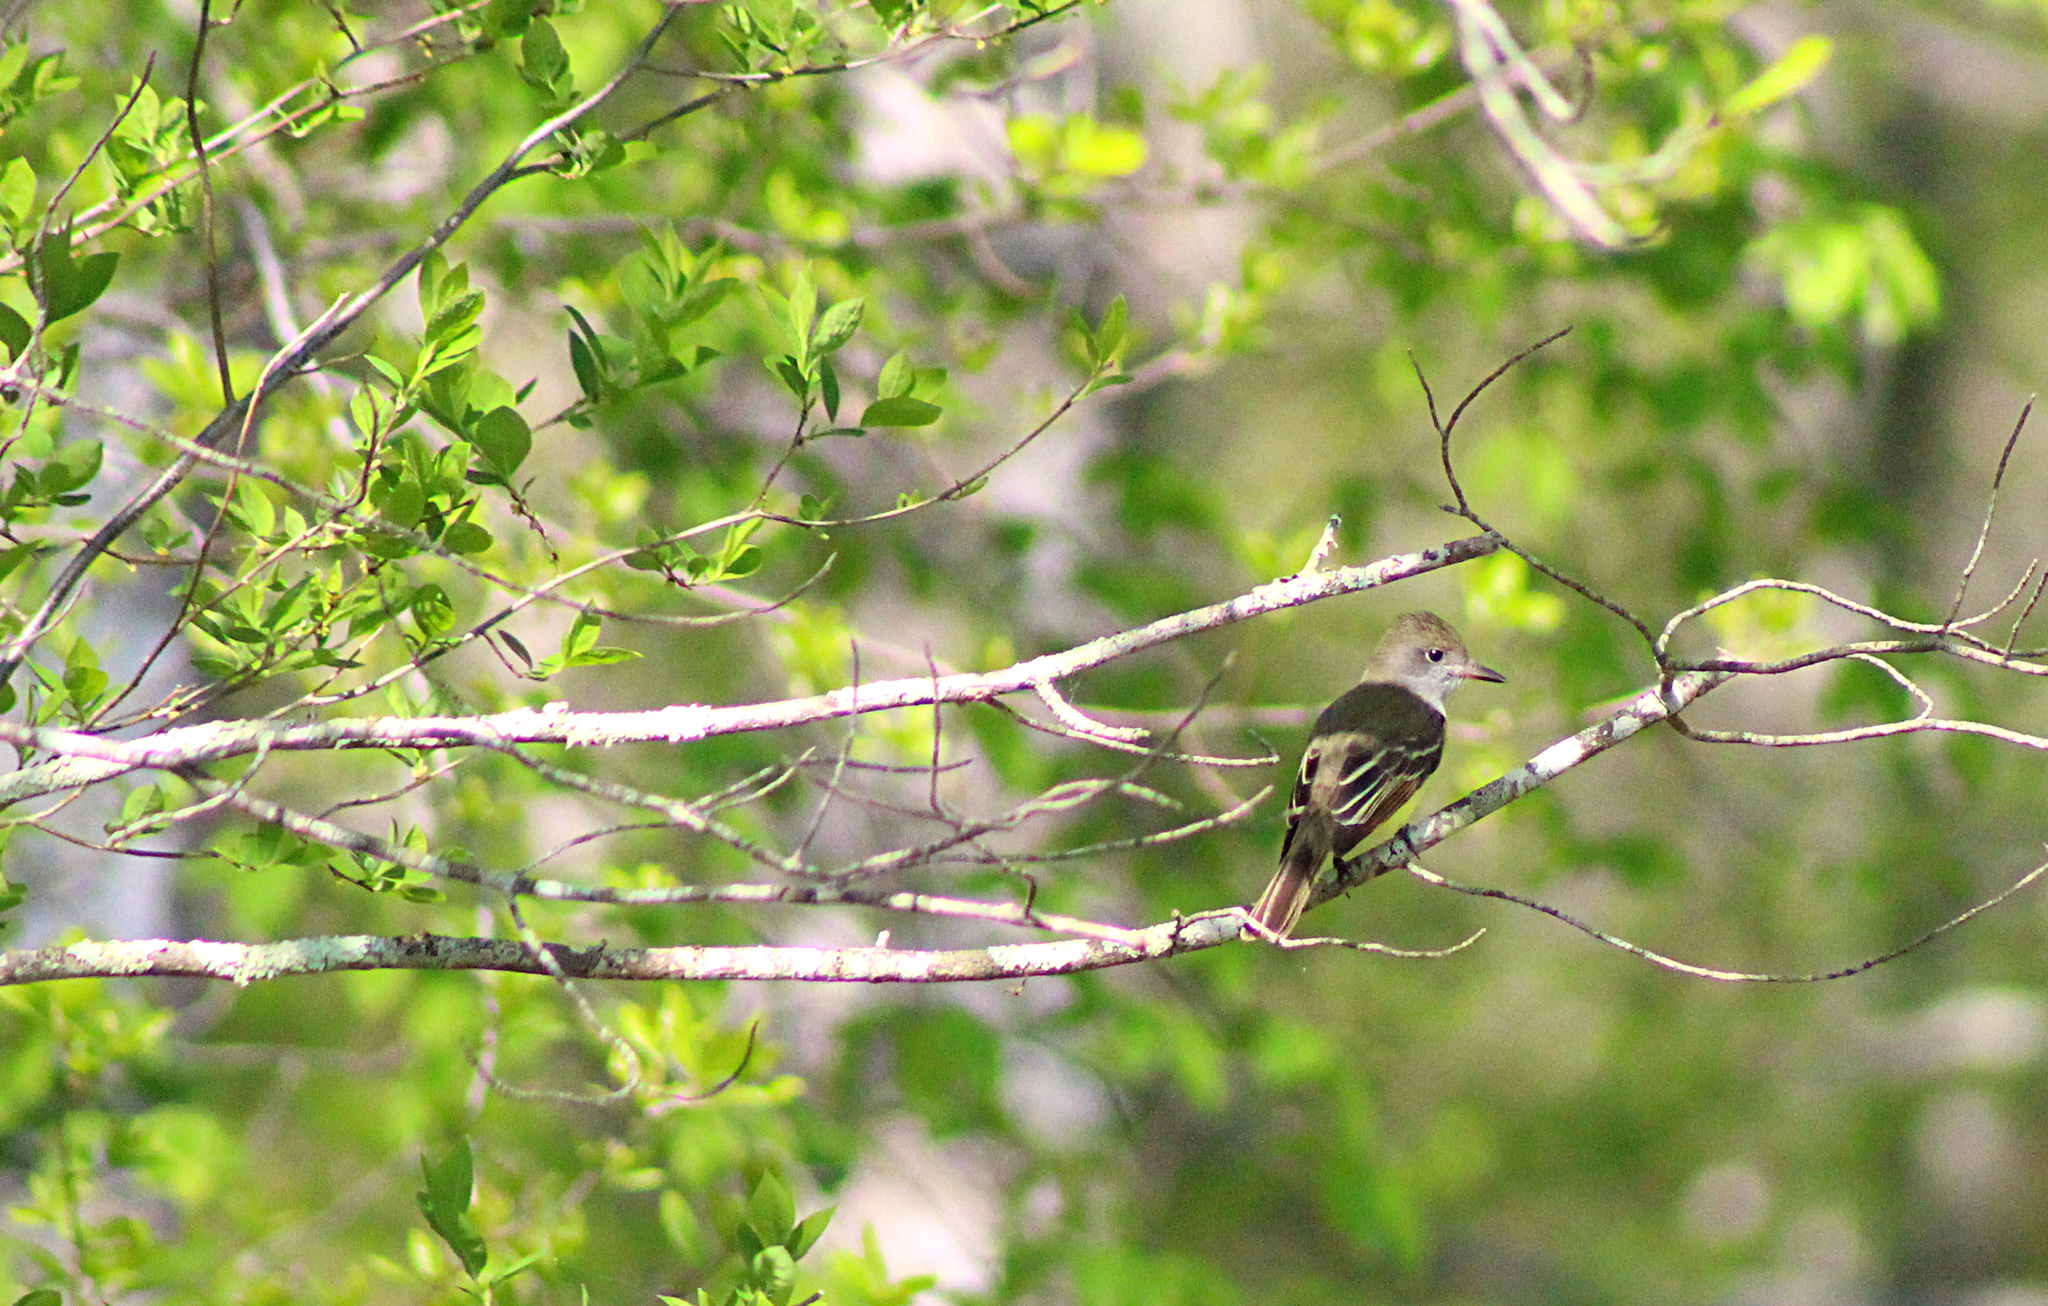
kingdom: Animalia
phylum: Chordata
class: Aves
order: Passeriformes
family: Tyrannidae
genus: Myiarchus
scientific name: Myiarchus crinitus
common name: Great crested flycatcher
